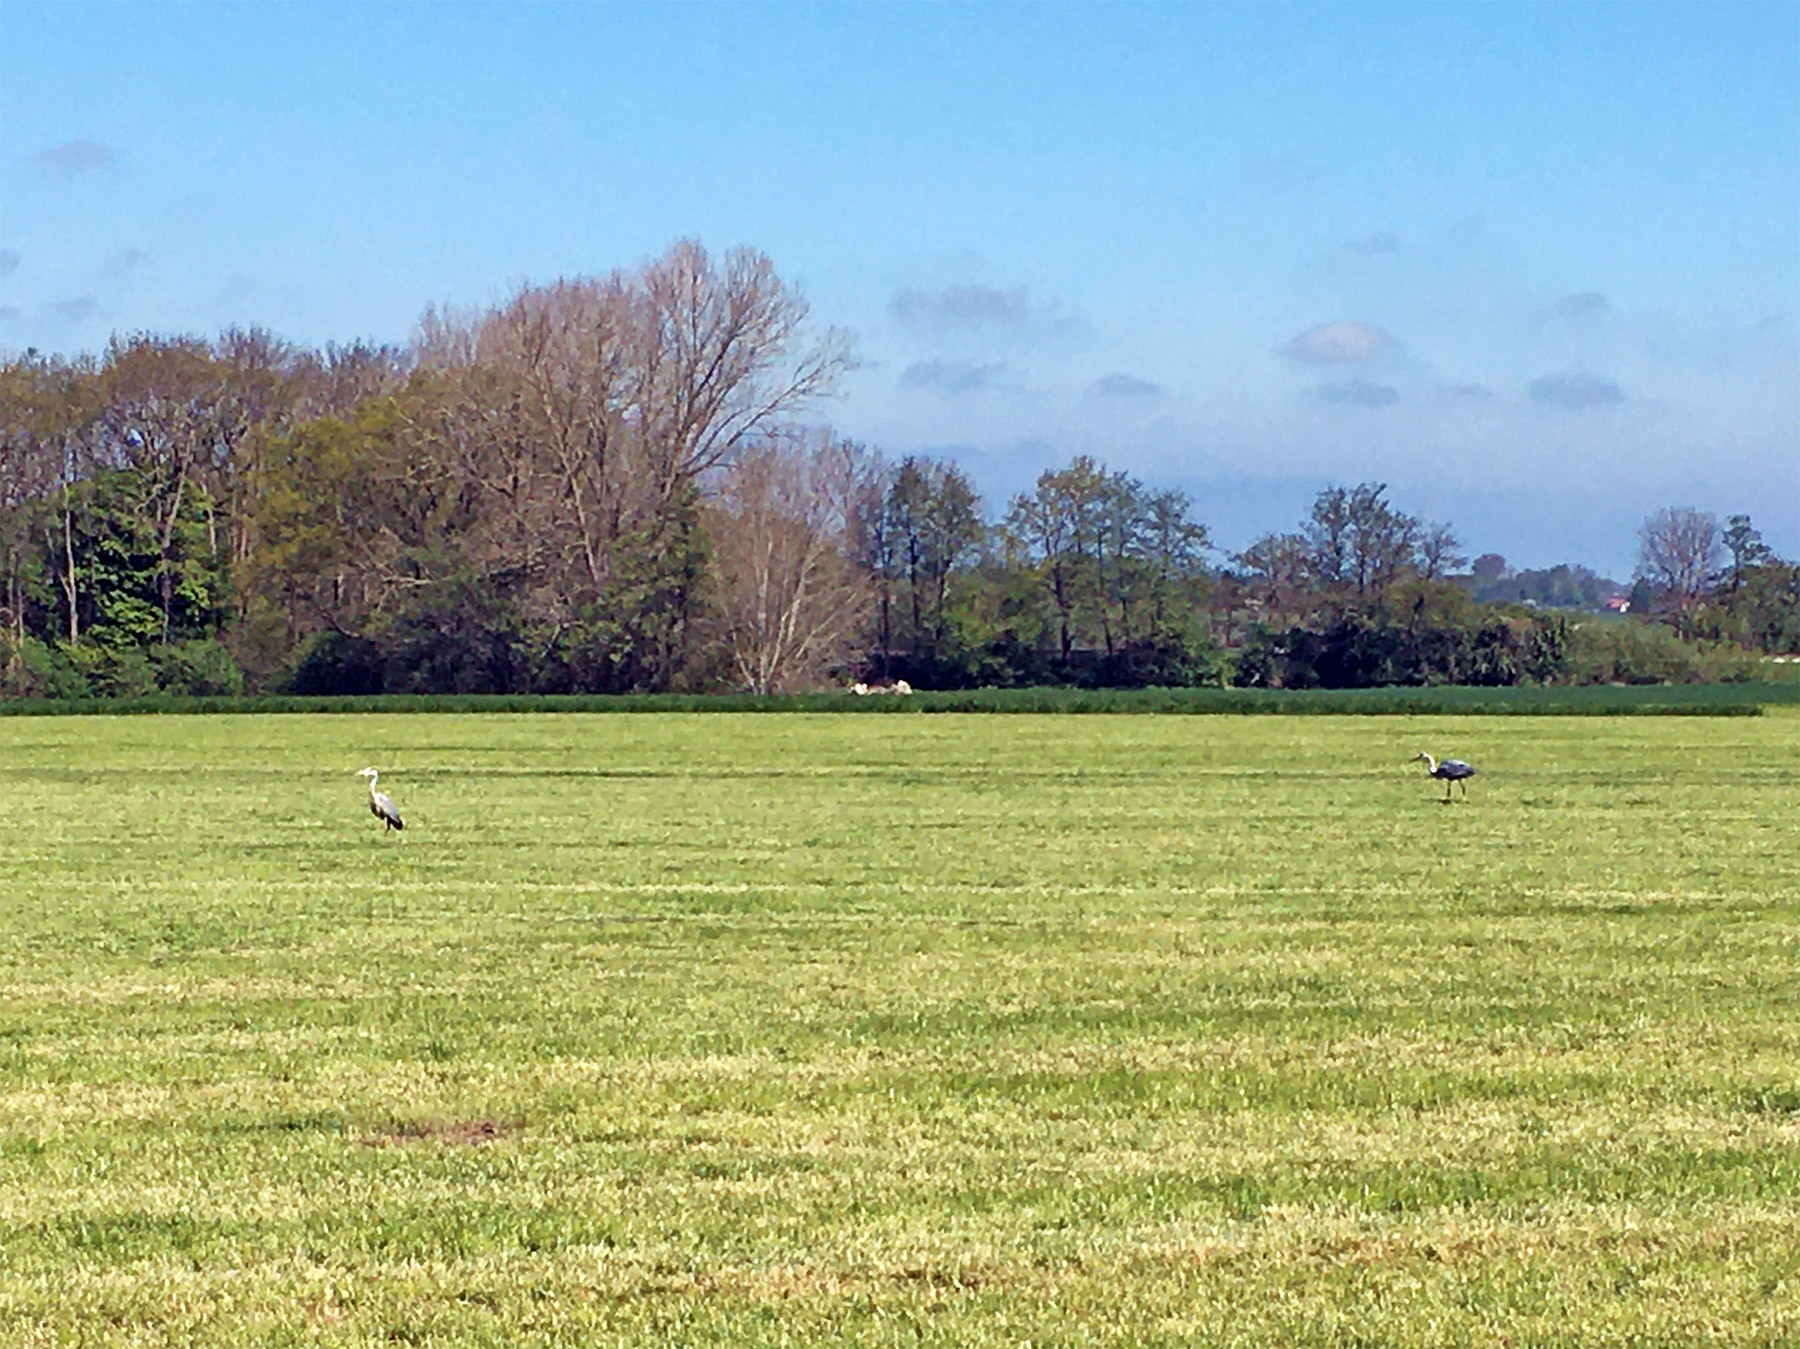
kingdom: Animalia
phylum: Chordata
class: Aves
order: Pelecaniformes
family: Ardeidae
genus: Ardea
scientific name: Ardea cinerea
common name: Grey heron
